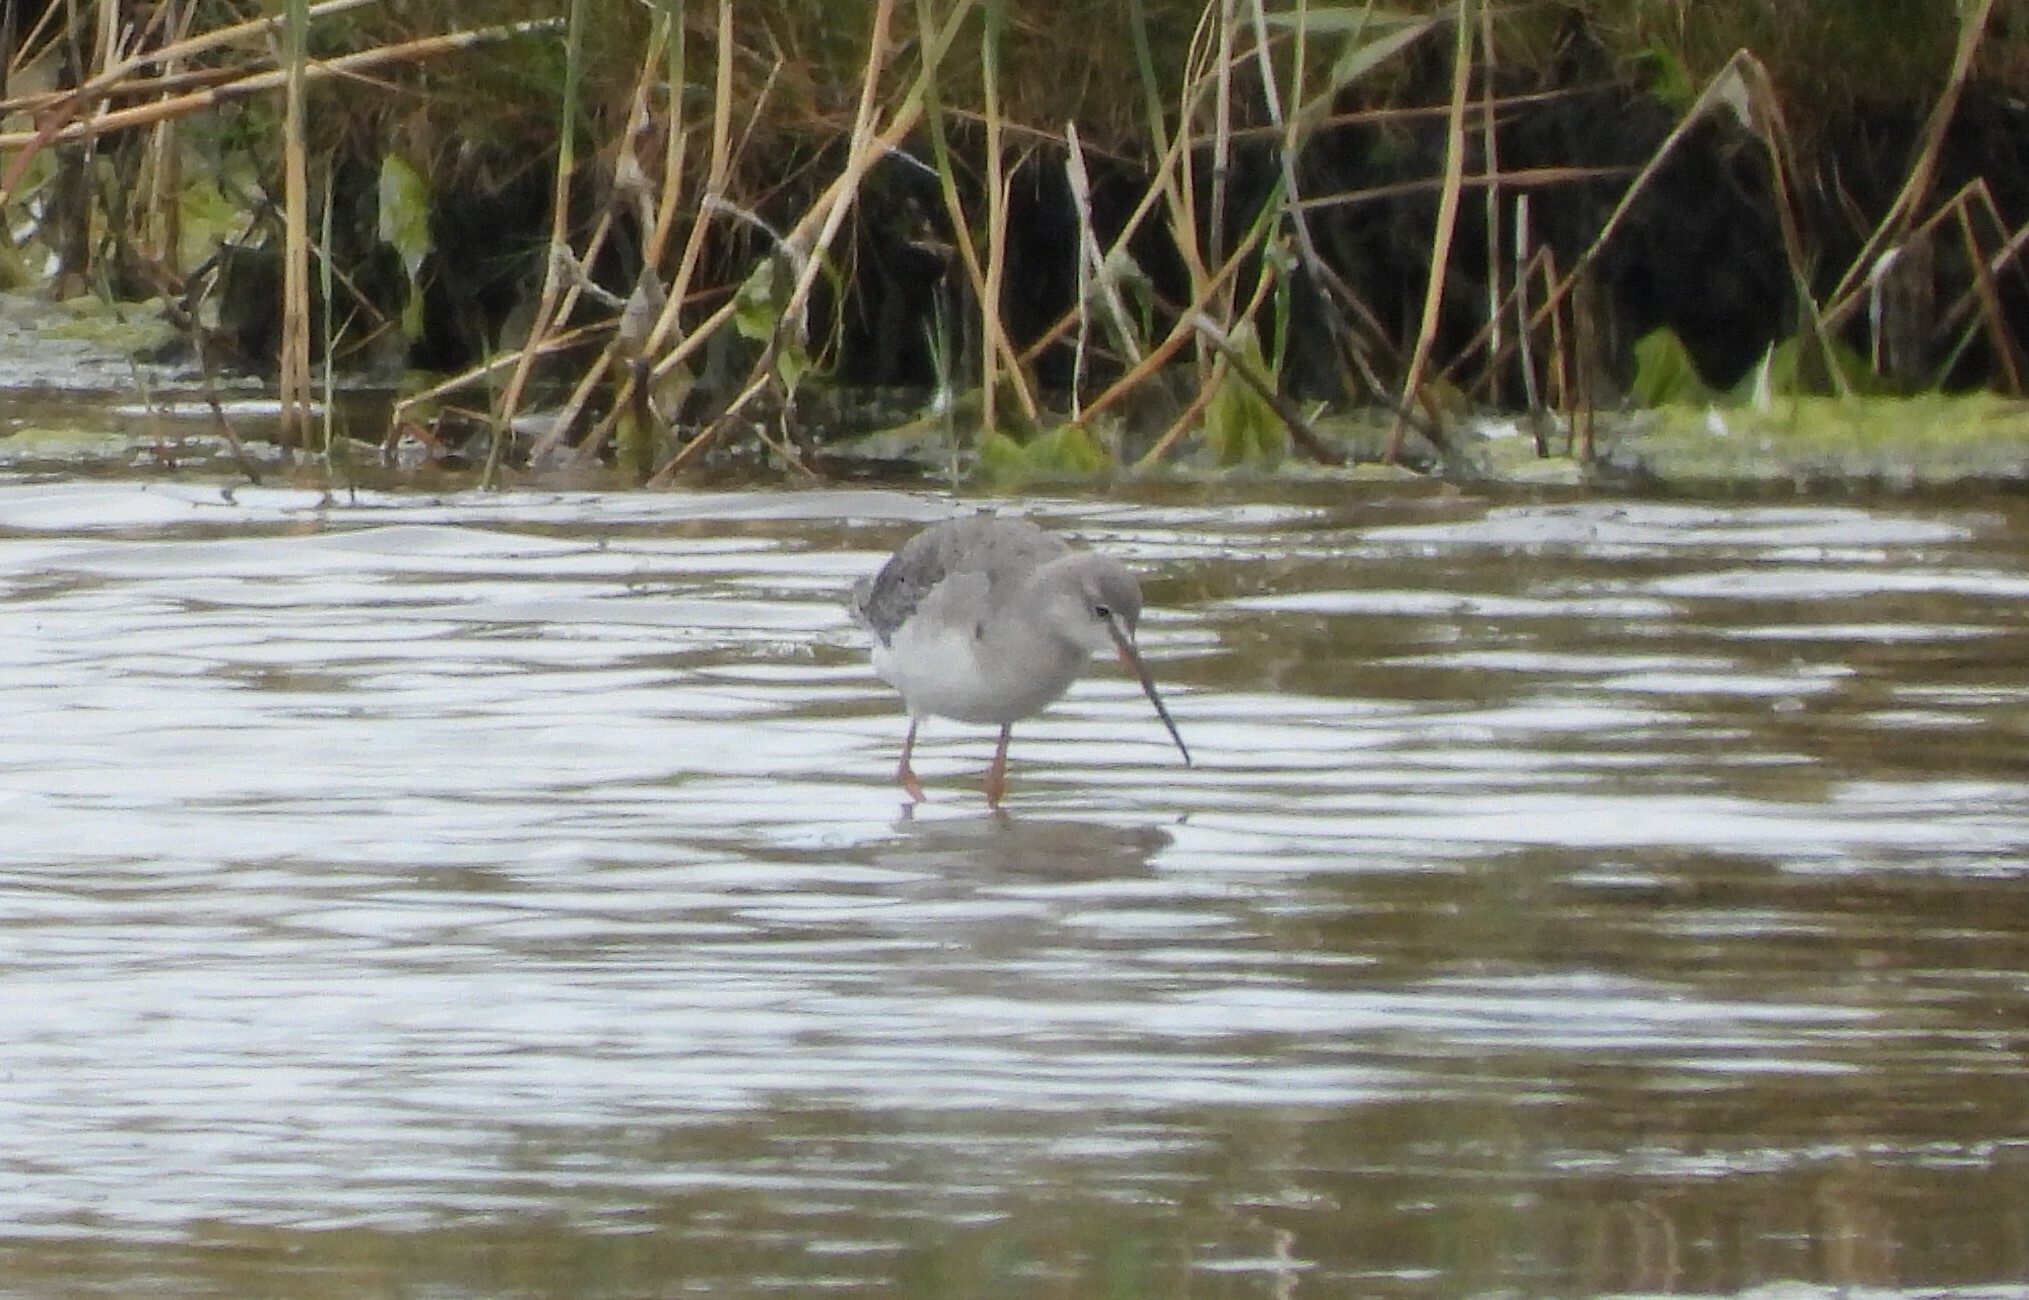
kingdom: Animalia
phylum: Chordata
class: Aves
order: Charadriiformes
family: Scolopacidae
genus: Tringa
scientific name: Tringa erythropus
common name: Spotted redshank
